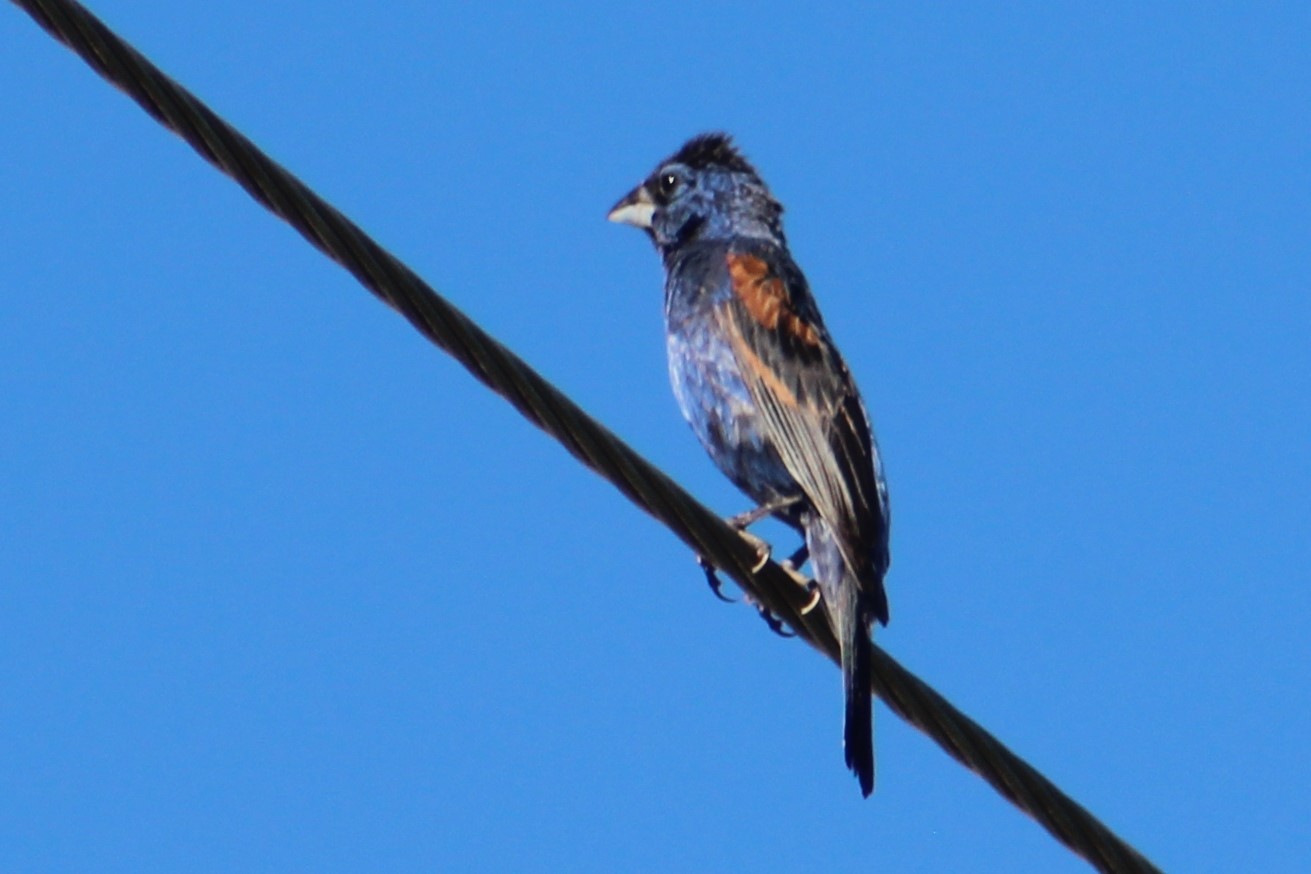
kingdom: Animalia
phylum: Chordata
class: Aves
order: Passeriformes
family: Cardinalidae
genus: Passerina
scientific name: Passerina caerulea
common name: Blue grosbeak
